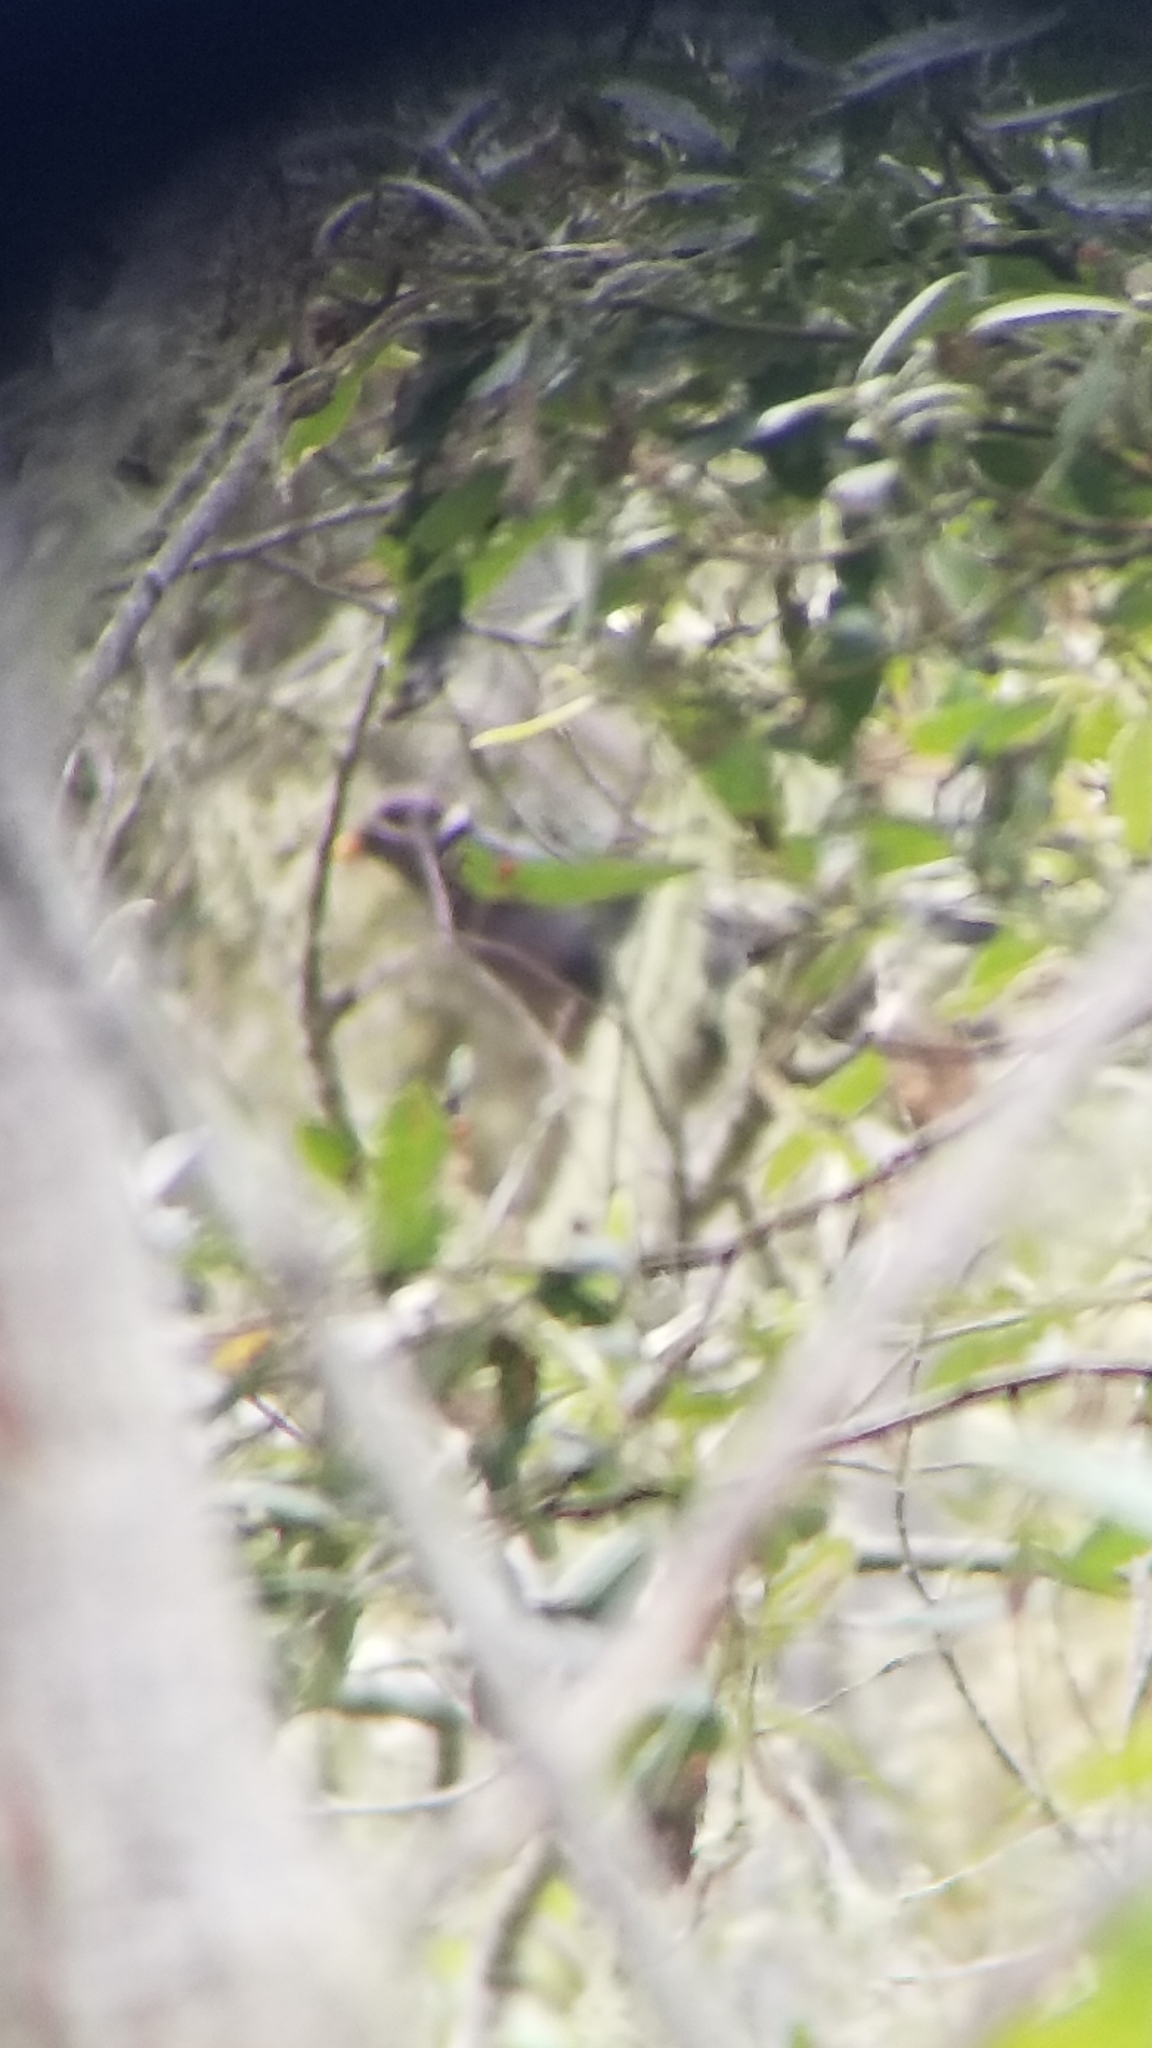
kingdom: Animalia
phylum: Chordata
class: Aves
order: Columbiformes
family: Columbidae
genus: Patagioenas
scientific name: Patagioenas fasciata
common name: Band-tailed pigeon
